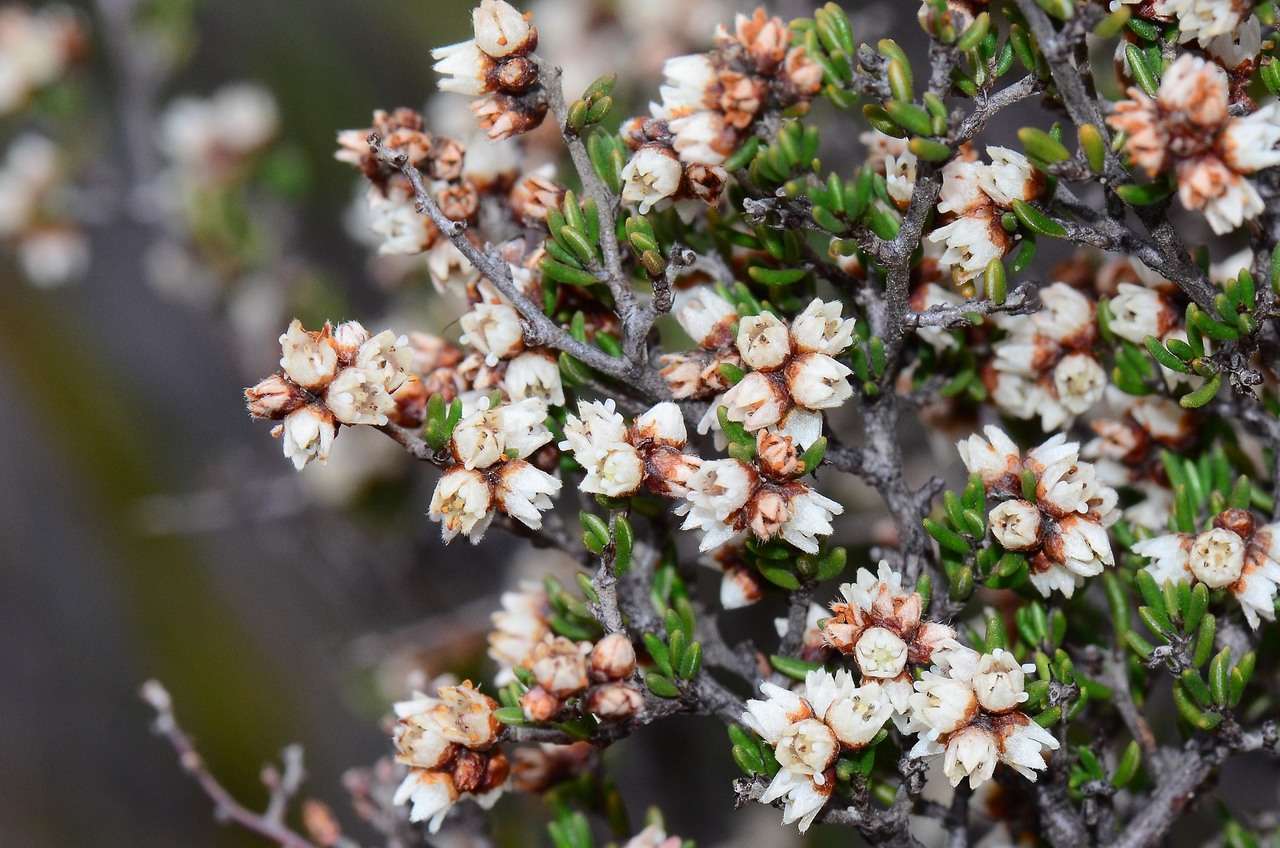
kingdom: Plantae
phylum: Tracheophyta
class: Magnoliopsida
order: Rosales
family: Rhamnaceae
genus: Cryptandra
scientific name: Cryptandra tomentosa
